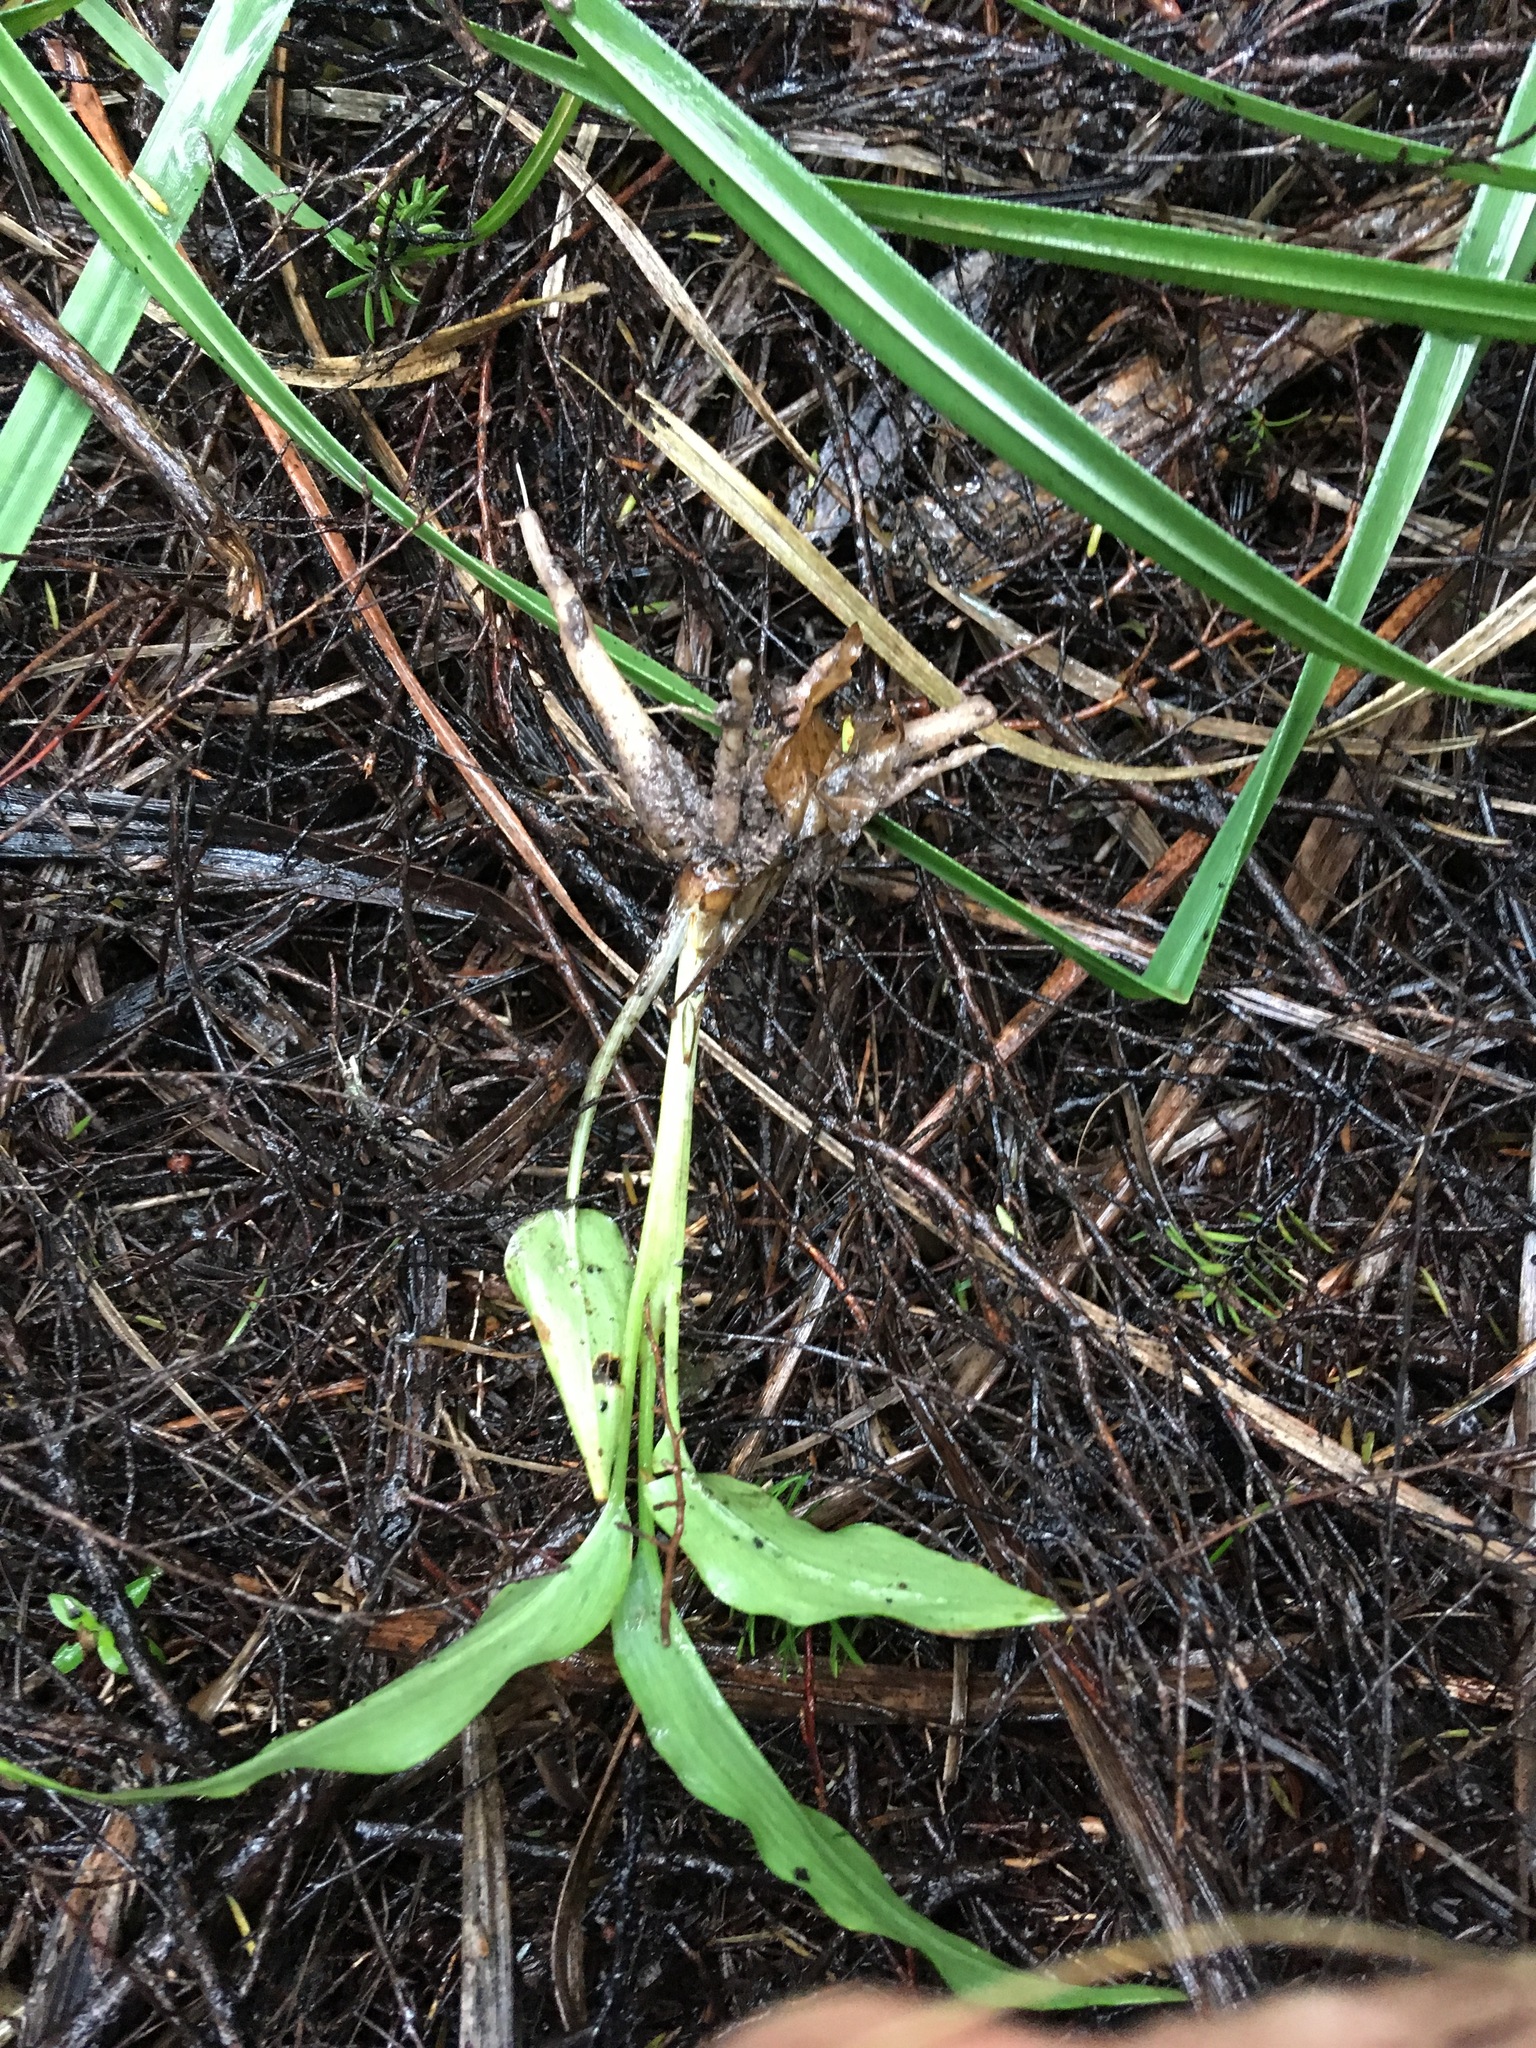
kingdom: Plantae
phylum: Tracheophyta
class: Liliopsida
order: Zingiberales
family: Zingiberaceae
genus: Hedychium
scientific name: Hedychium gardnerianum
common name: Himalayan ginger
